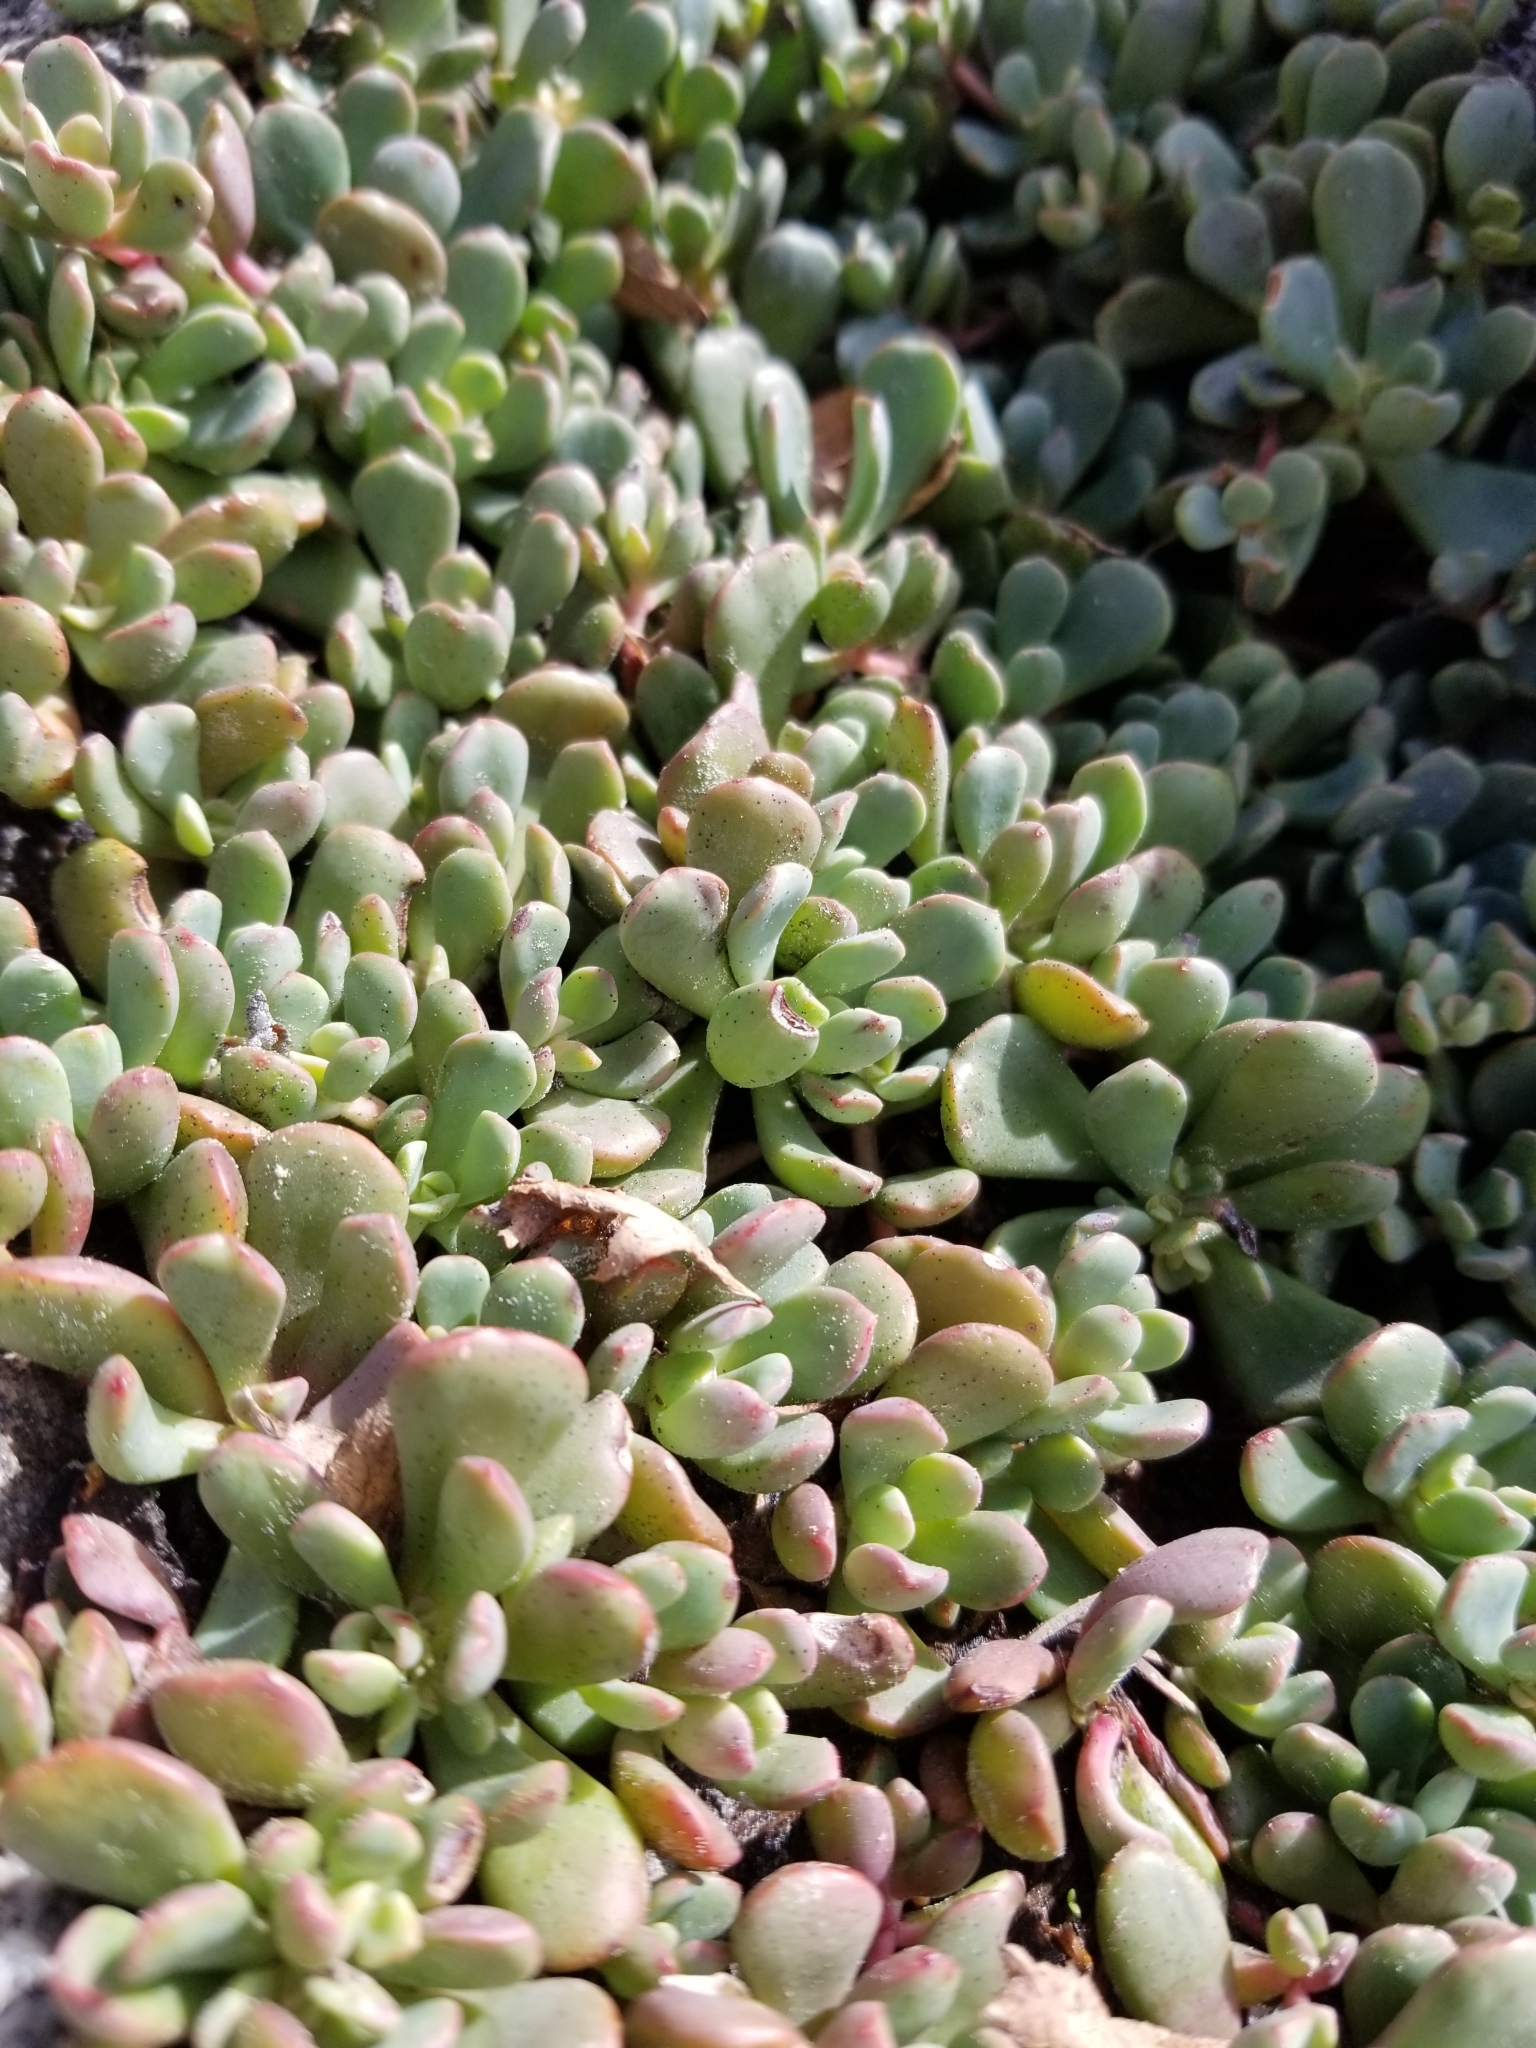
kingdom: Plantae
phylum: Tracheophyta
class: Magnoliopsida
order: Saxifragales
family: Crassulaceae
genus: Sedum
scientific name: Sedum obtusatum
